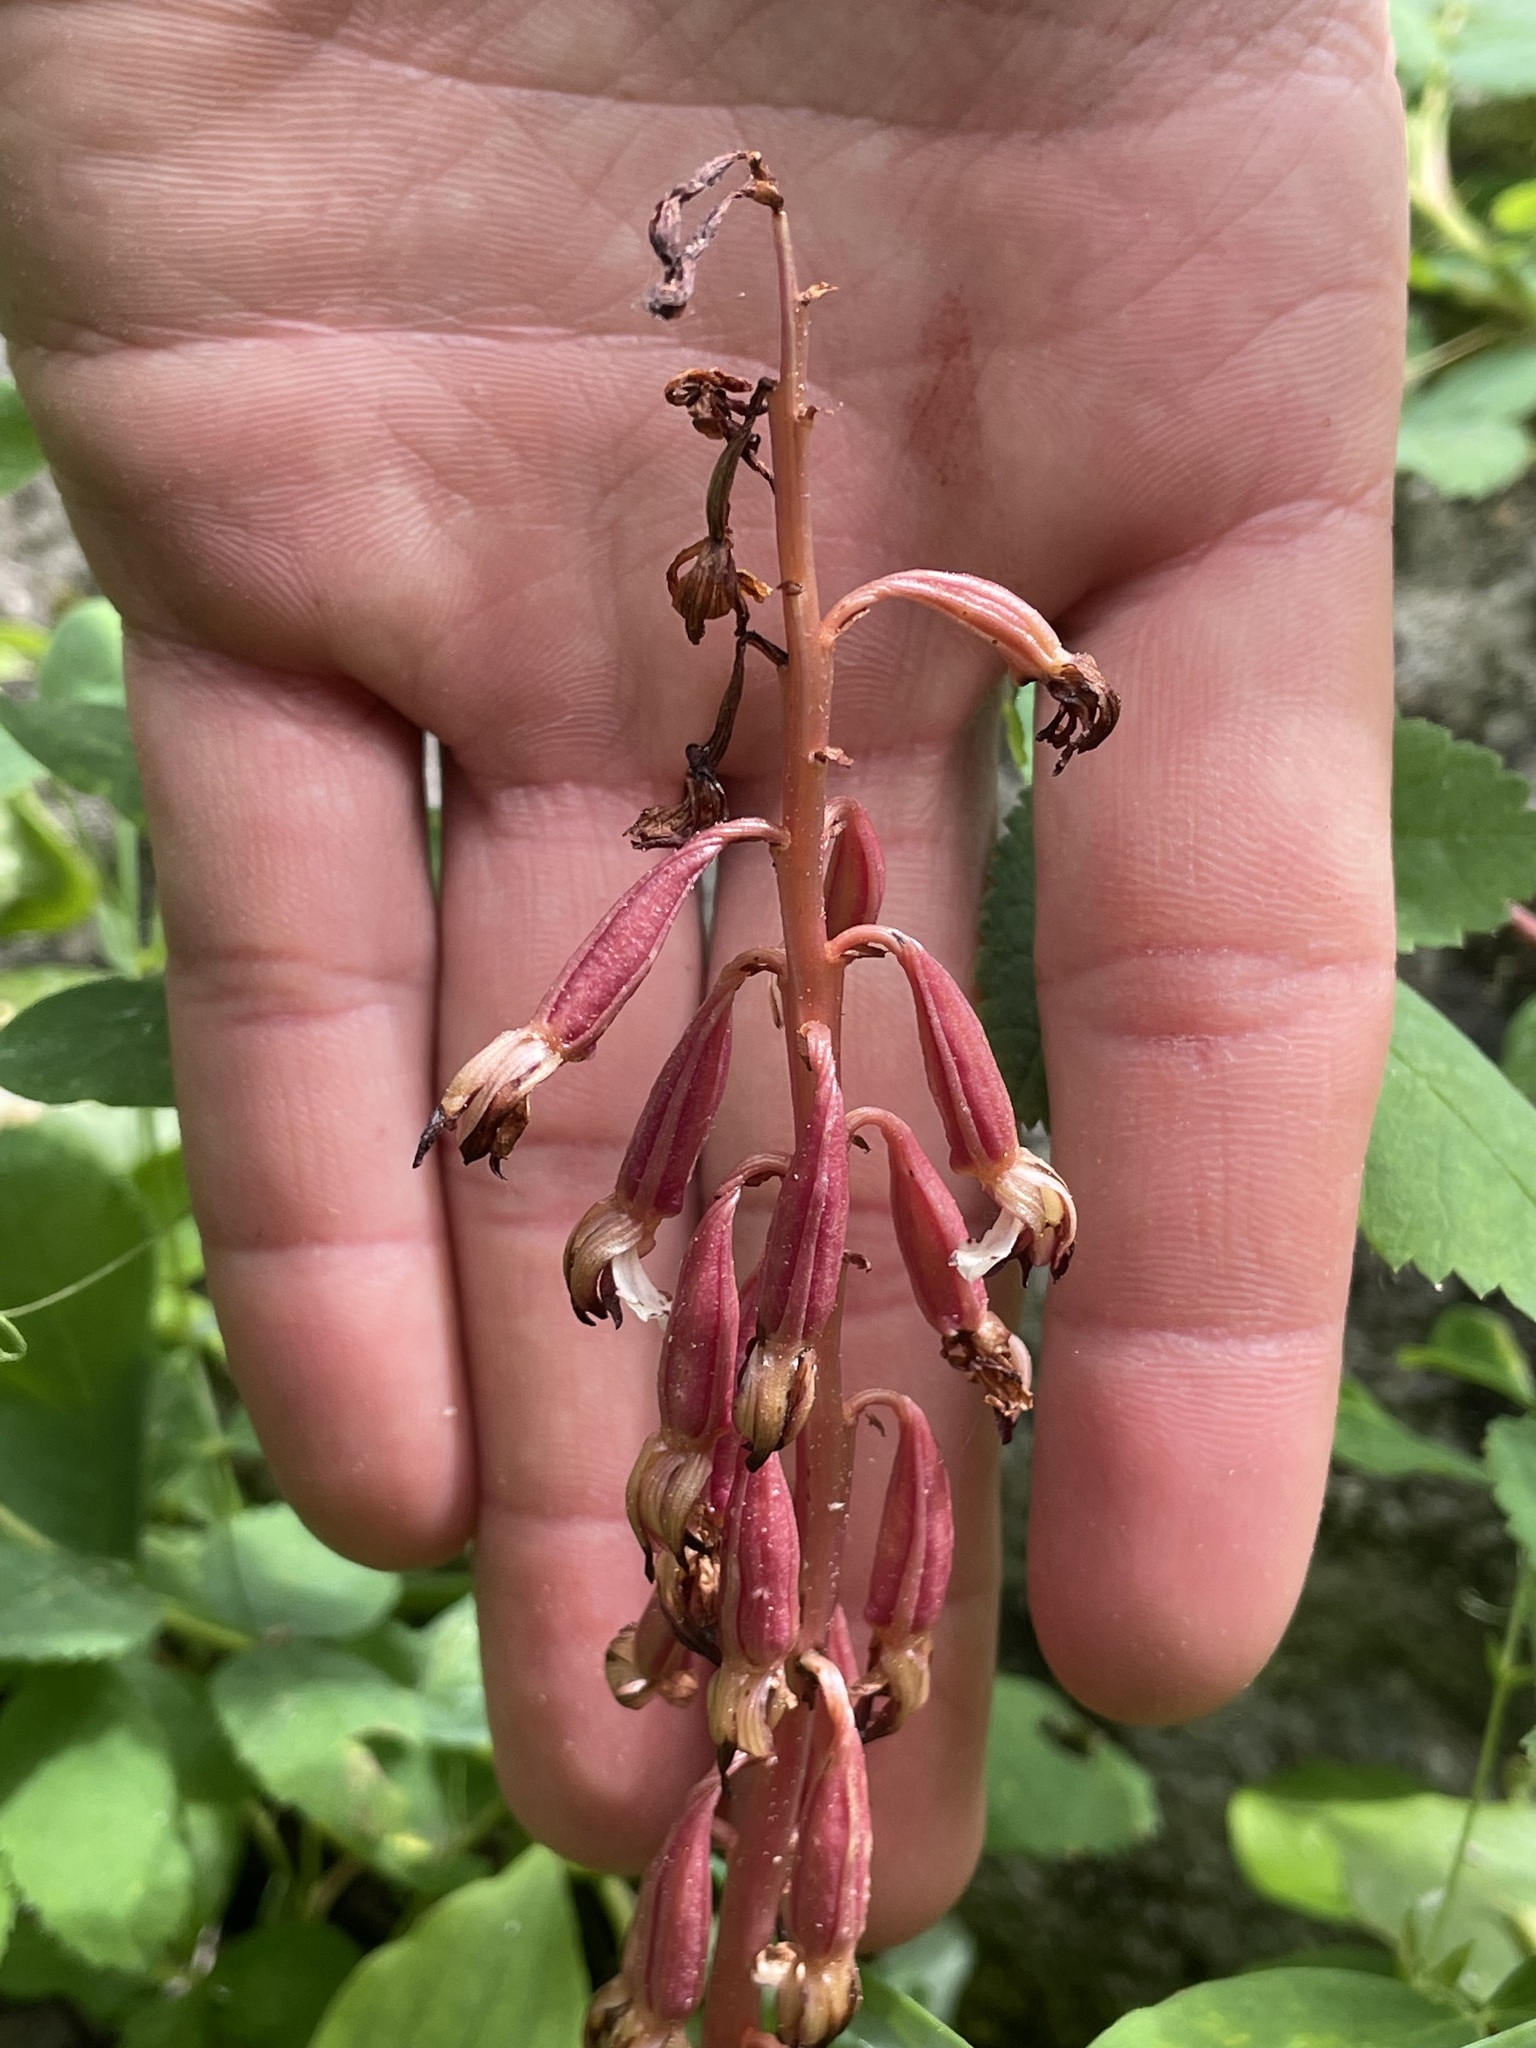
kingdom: Plantae
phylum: Tracheophyta
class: Liliopsida
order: Asparagales
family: Orchidaceae
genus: Corallorhiza
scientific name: Corallorhiza maculata
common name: Spotted coralroot
